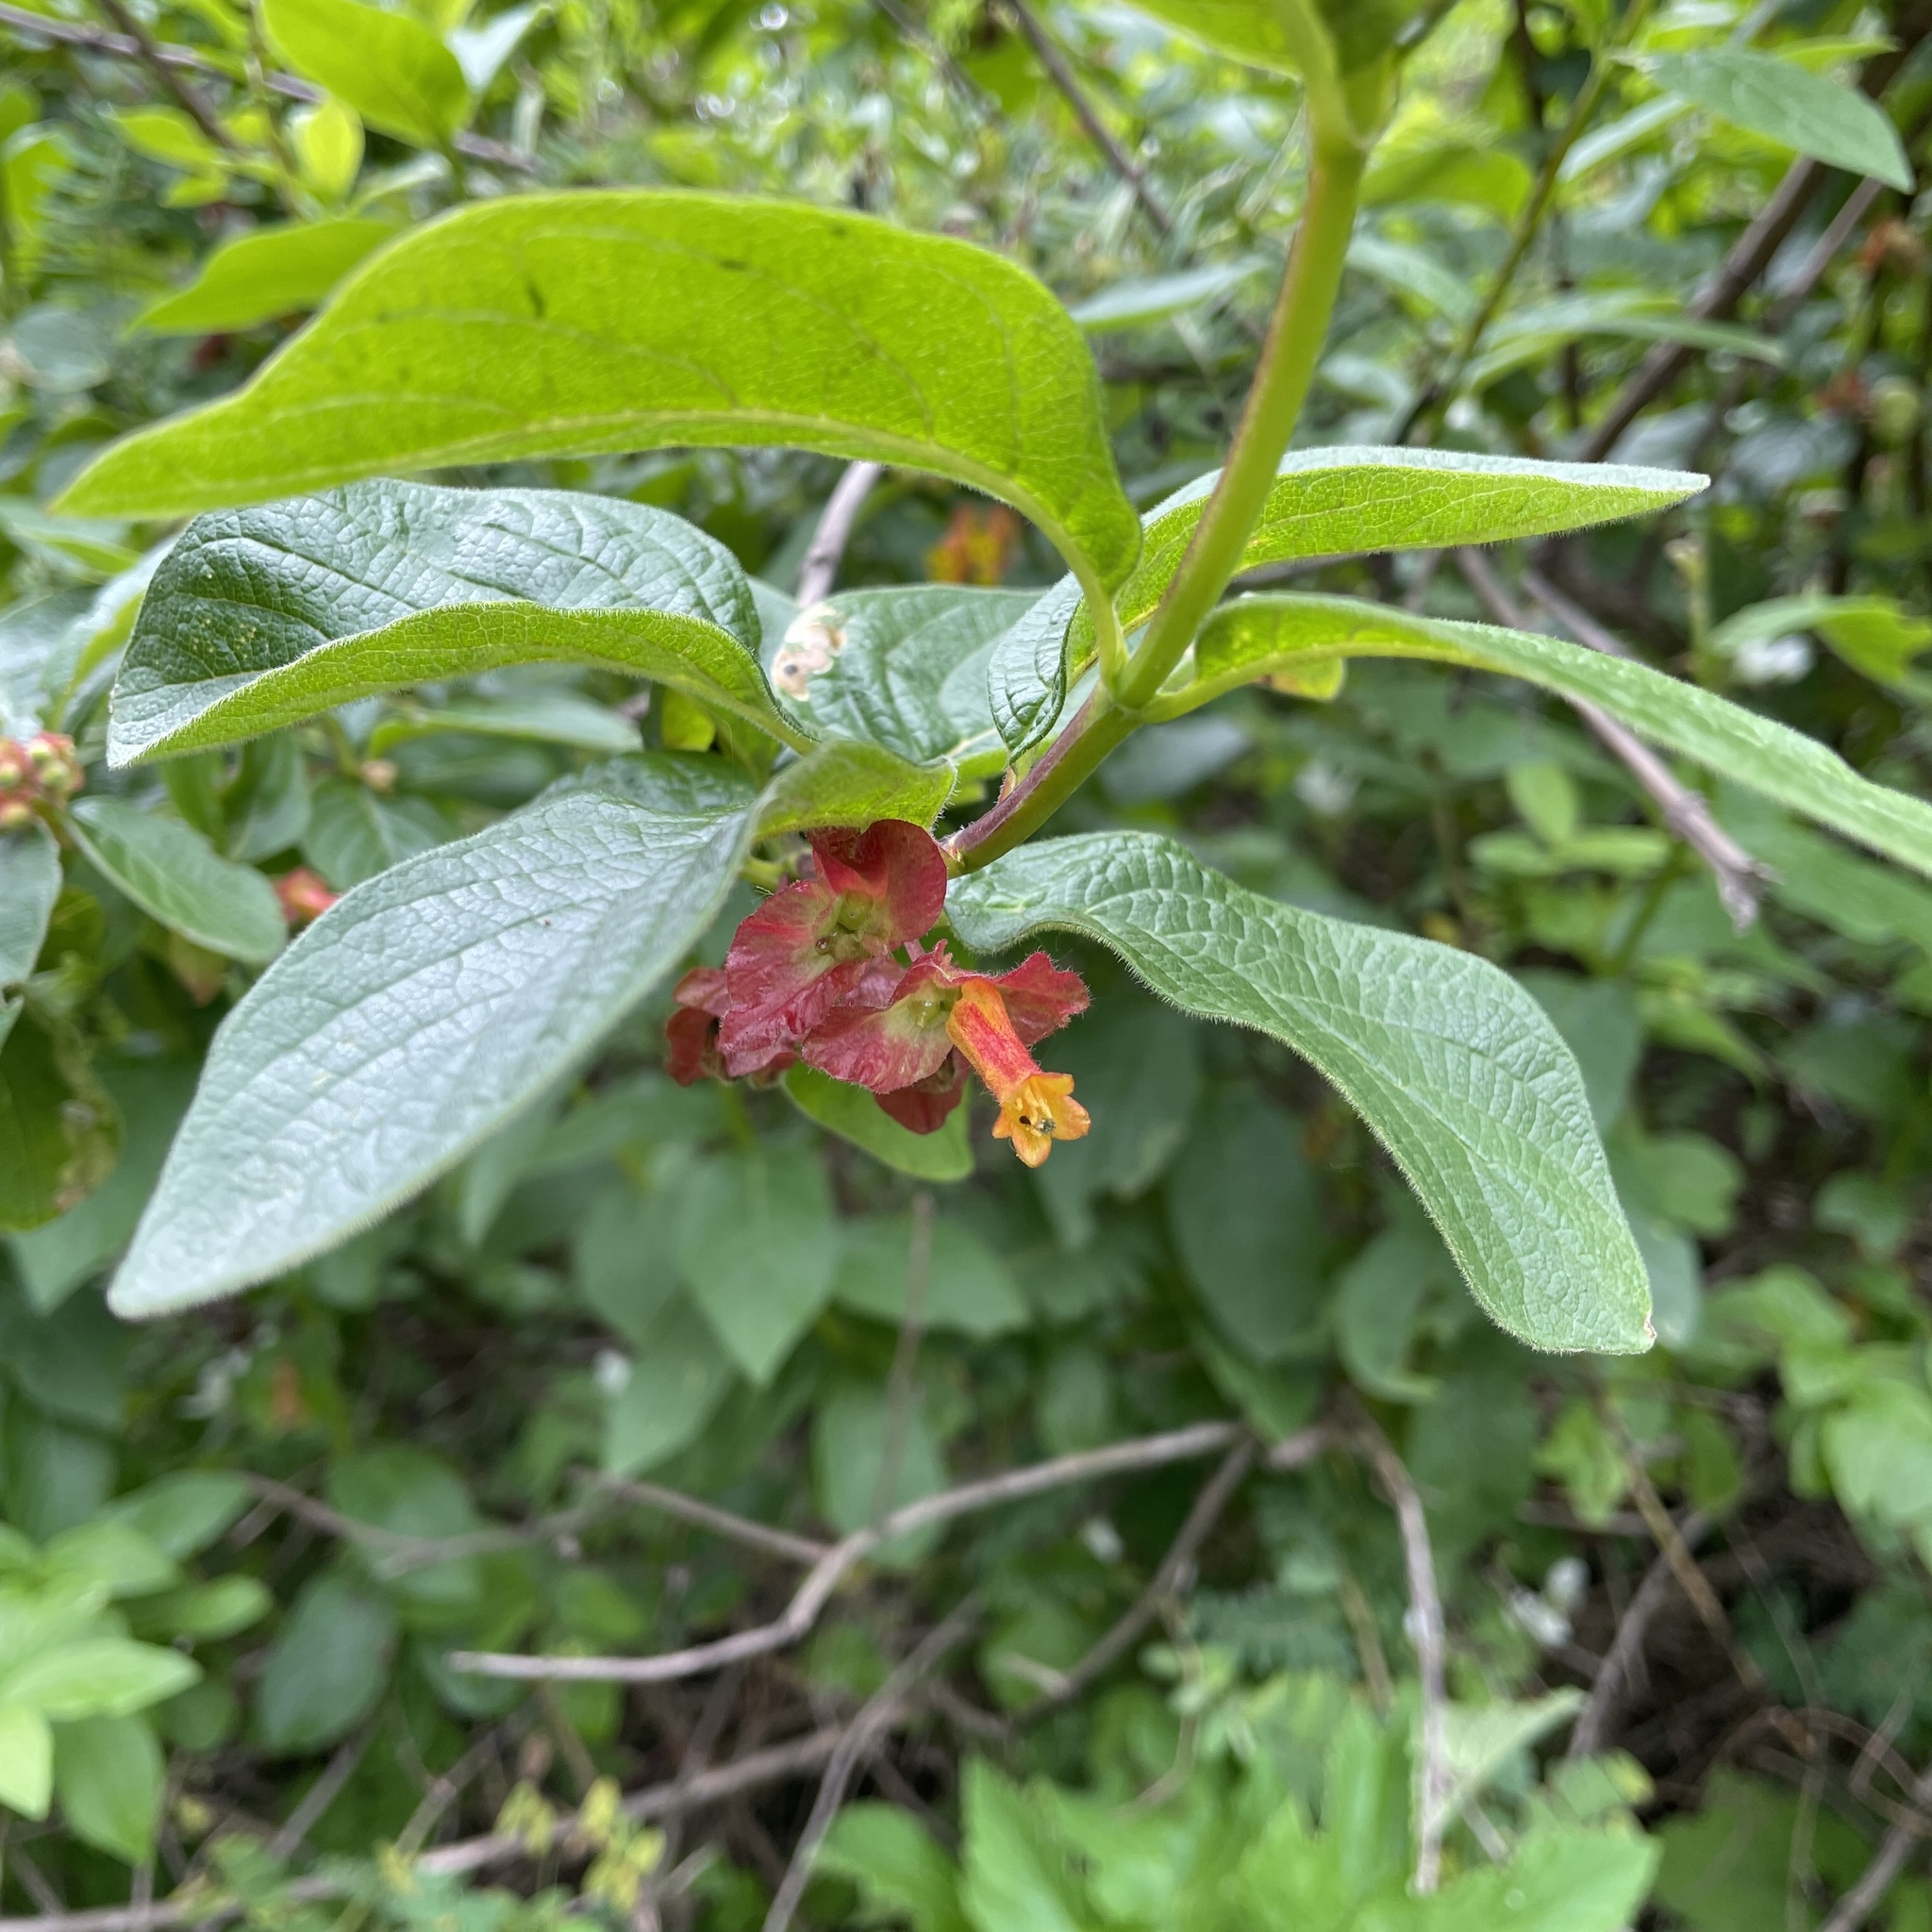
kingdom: Plantae
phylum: Tracheophyta
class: Magnoliopsida
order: Dipsacales
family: Caprifoliaceae
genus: Lonicera
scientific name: Lonicera involucrata
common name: Californian honeysuckle
